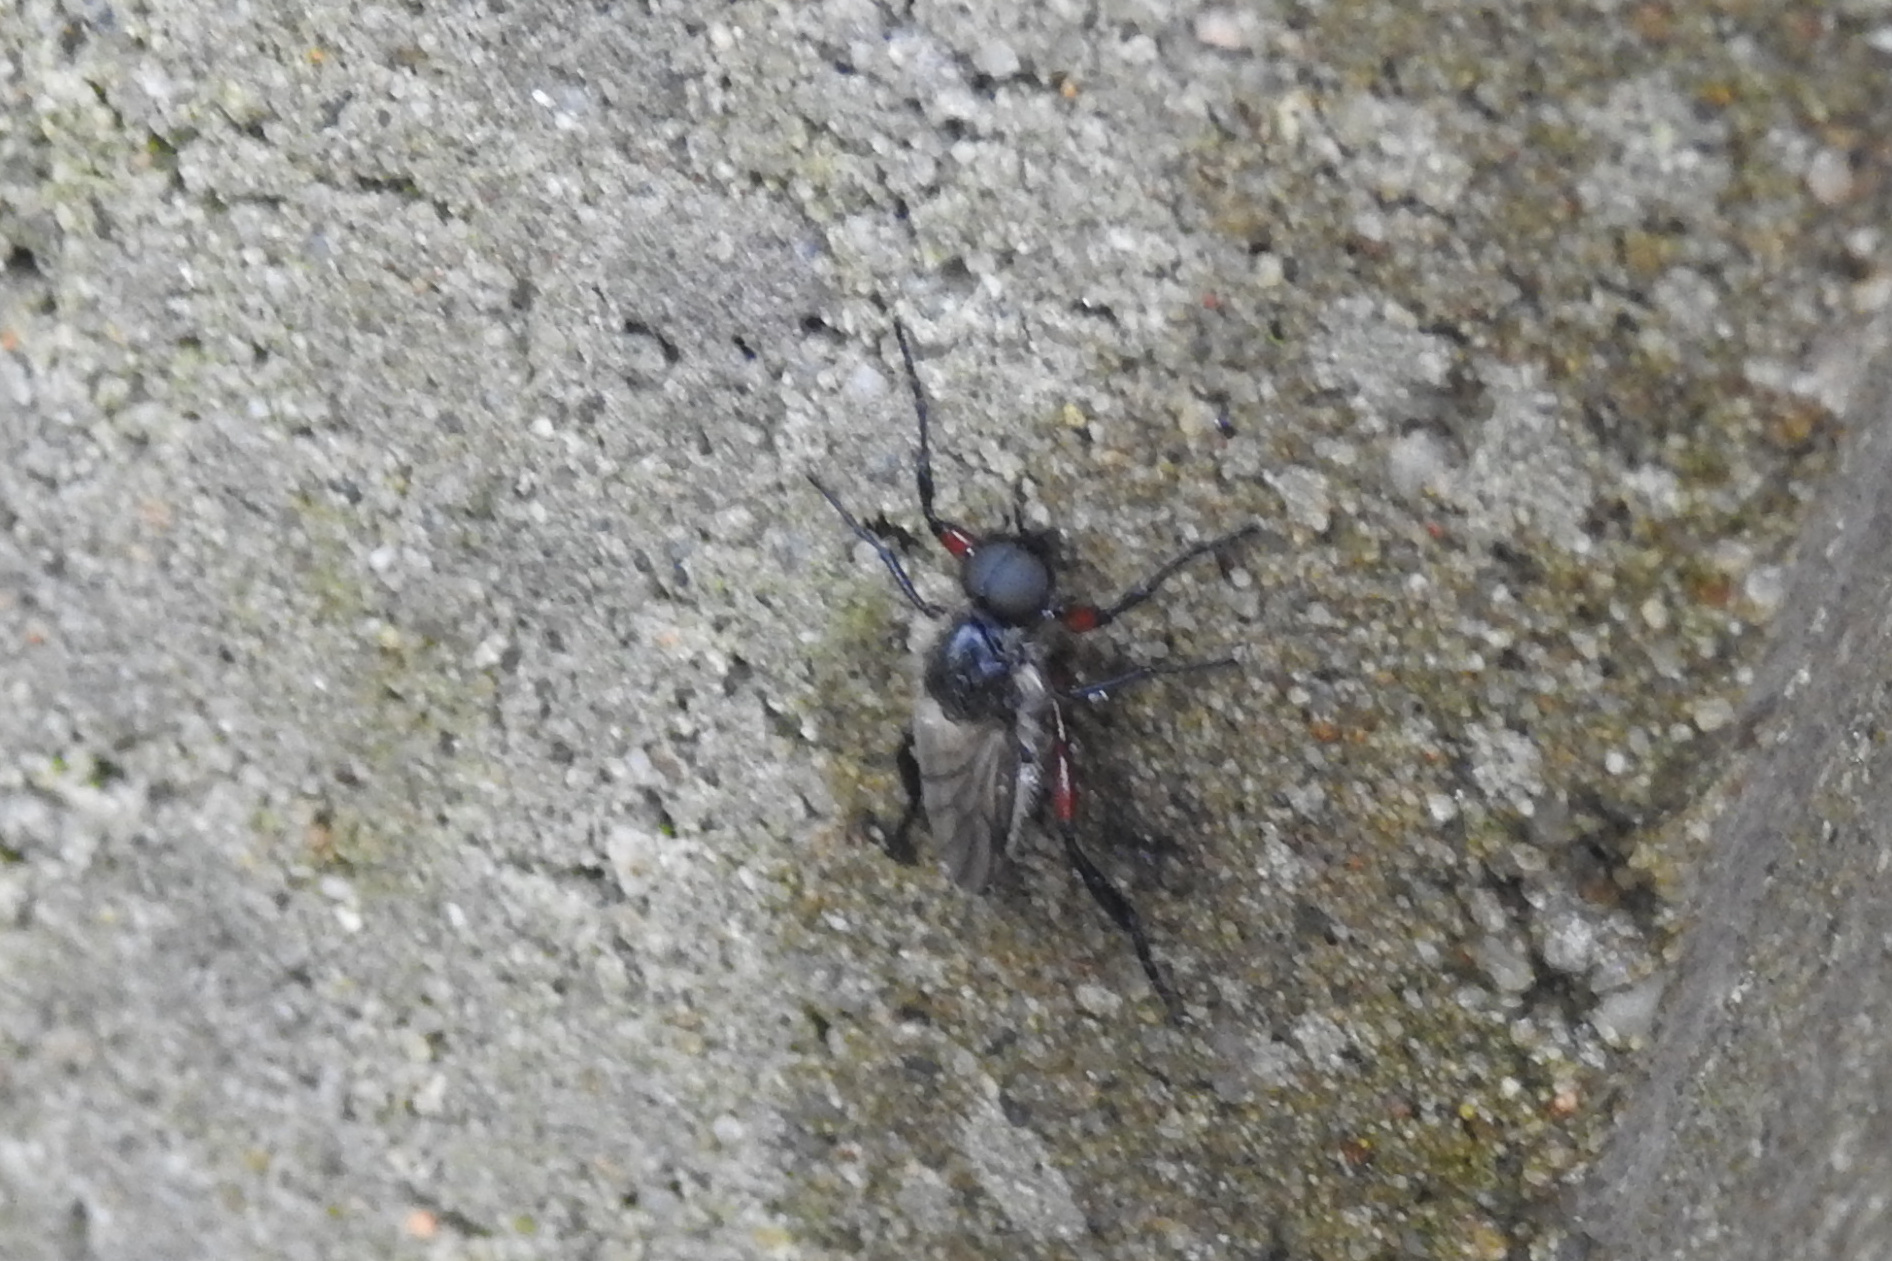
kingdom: Animalia
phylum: Arthropoda
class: Insecta
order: Diptera
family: Bibionidae
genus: Bibio
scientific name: Bibio femoratus
